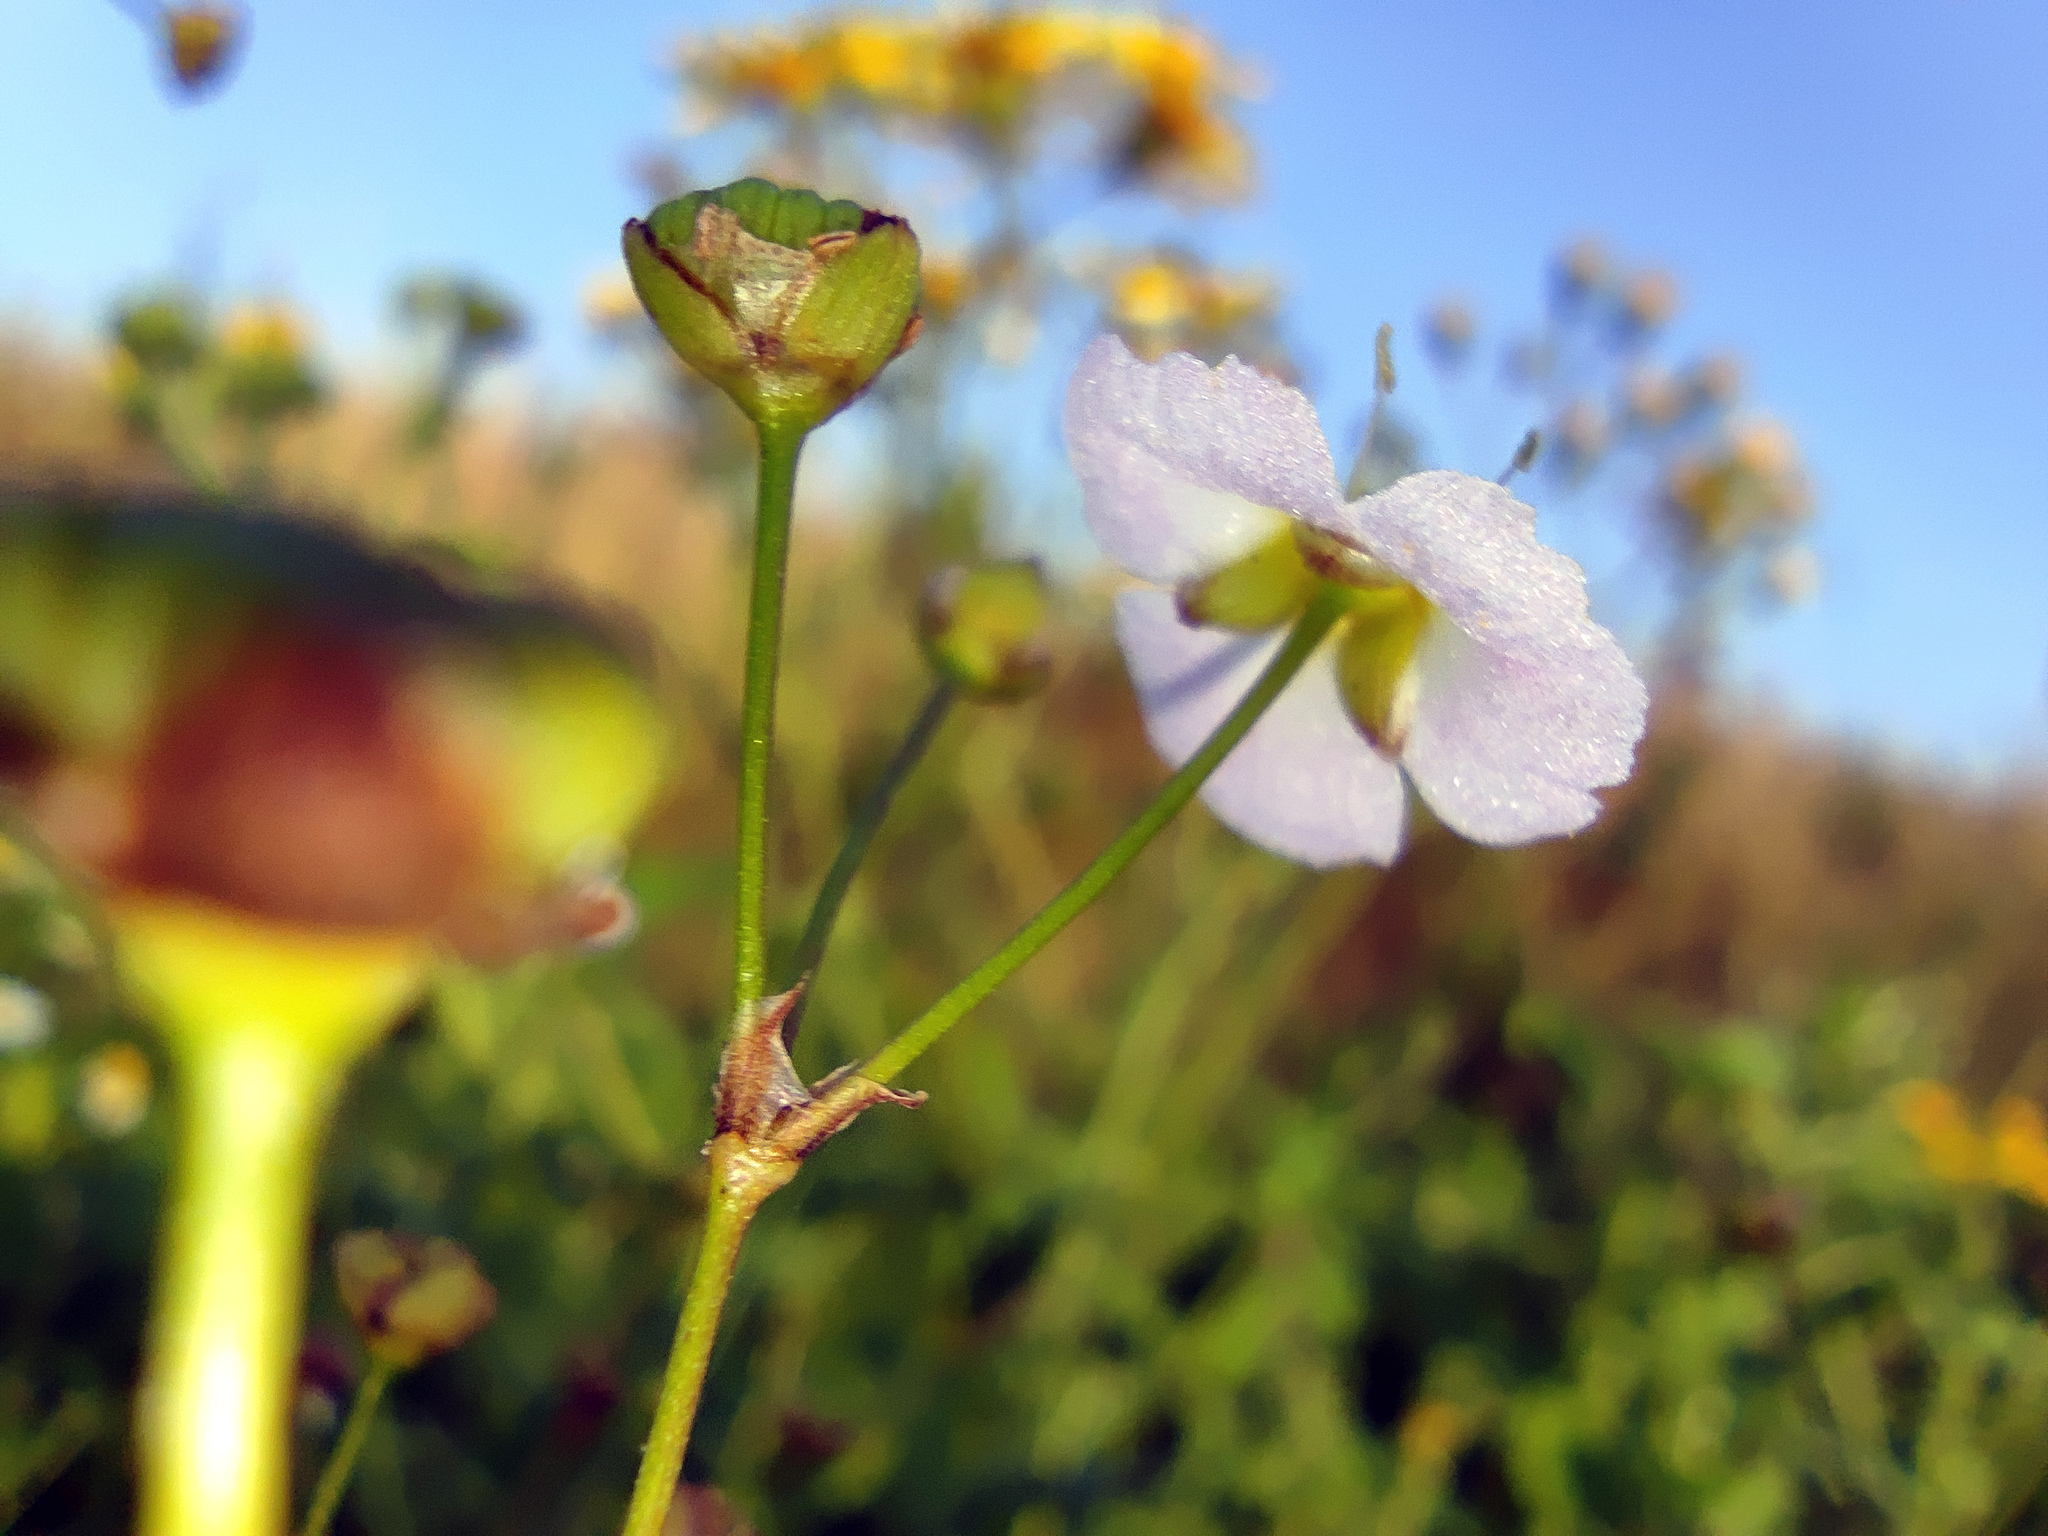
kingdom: Plantae
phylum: Tracheophyta
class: Liliopsida
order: Alismatales
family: Alismataceae
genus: Alisma
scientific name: Alisma plantago-aquatica
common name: Water-plantain
